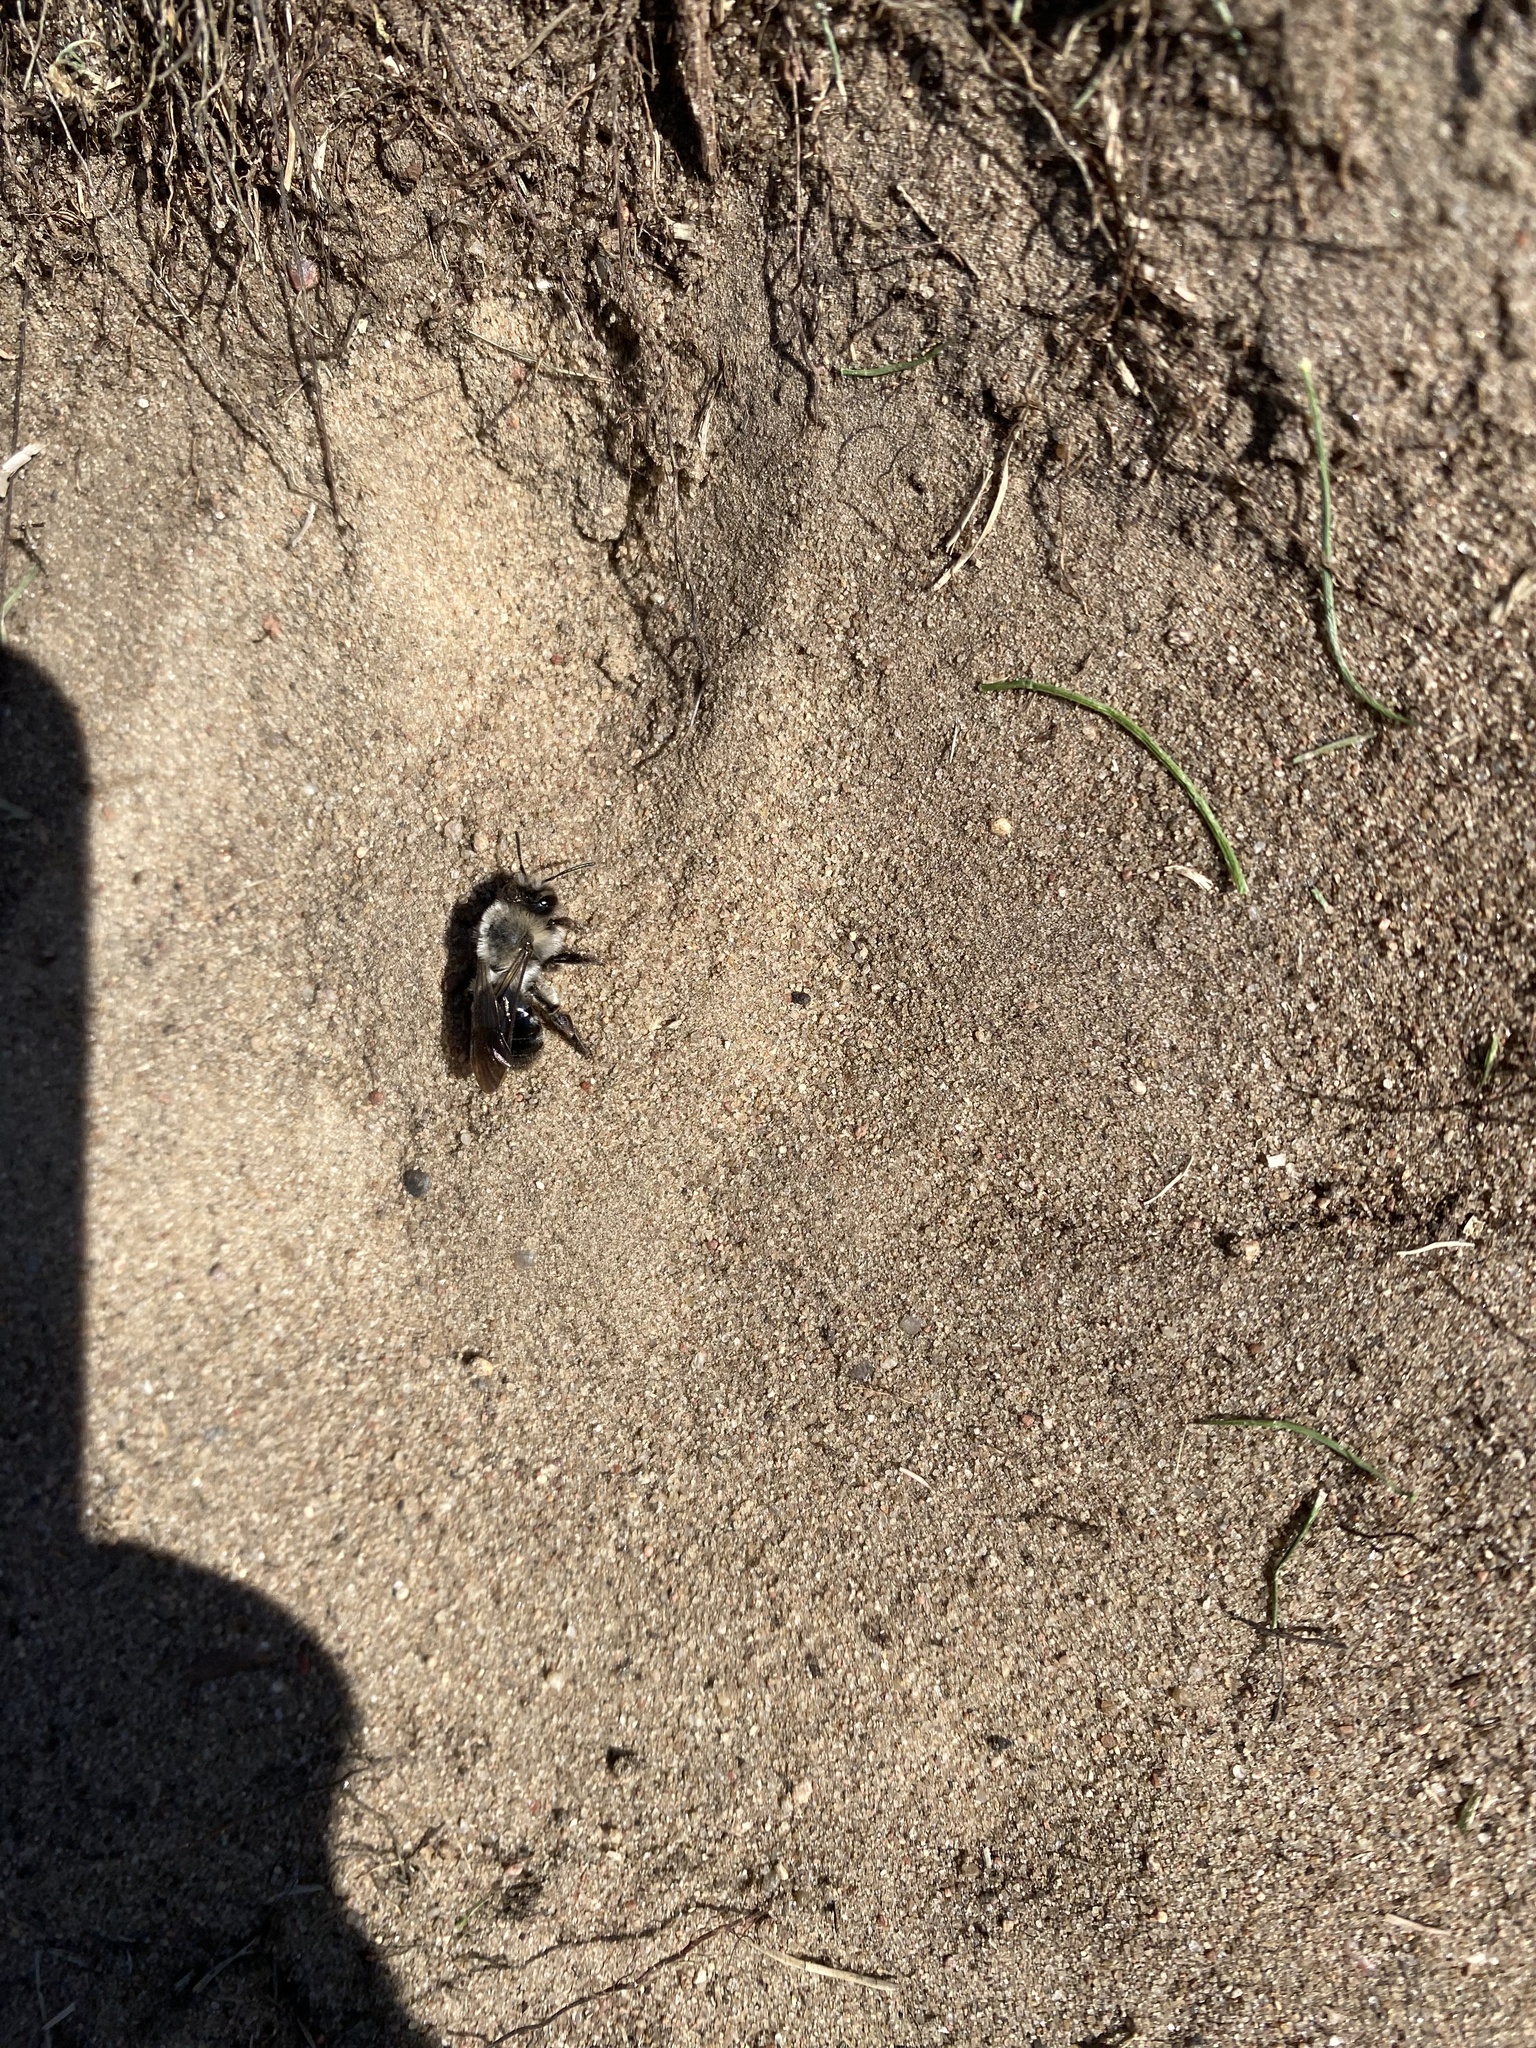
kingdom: Animalia
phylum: Arthropoda
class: Insecta
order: Hymenoptera
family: Andrenidae
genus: Andrena
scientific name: Andrena vaga
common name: Grey-backed mining bee
